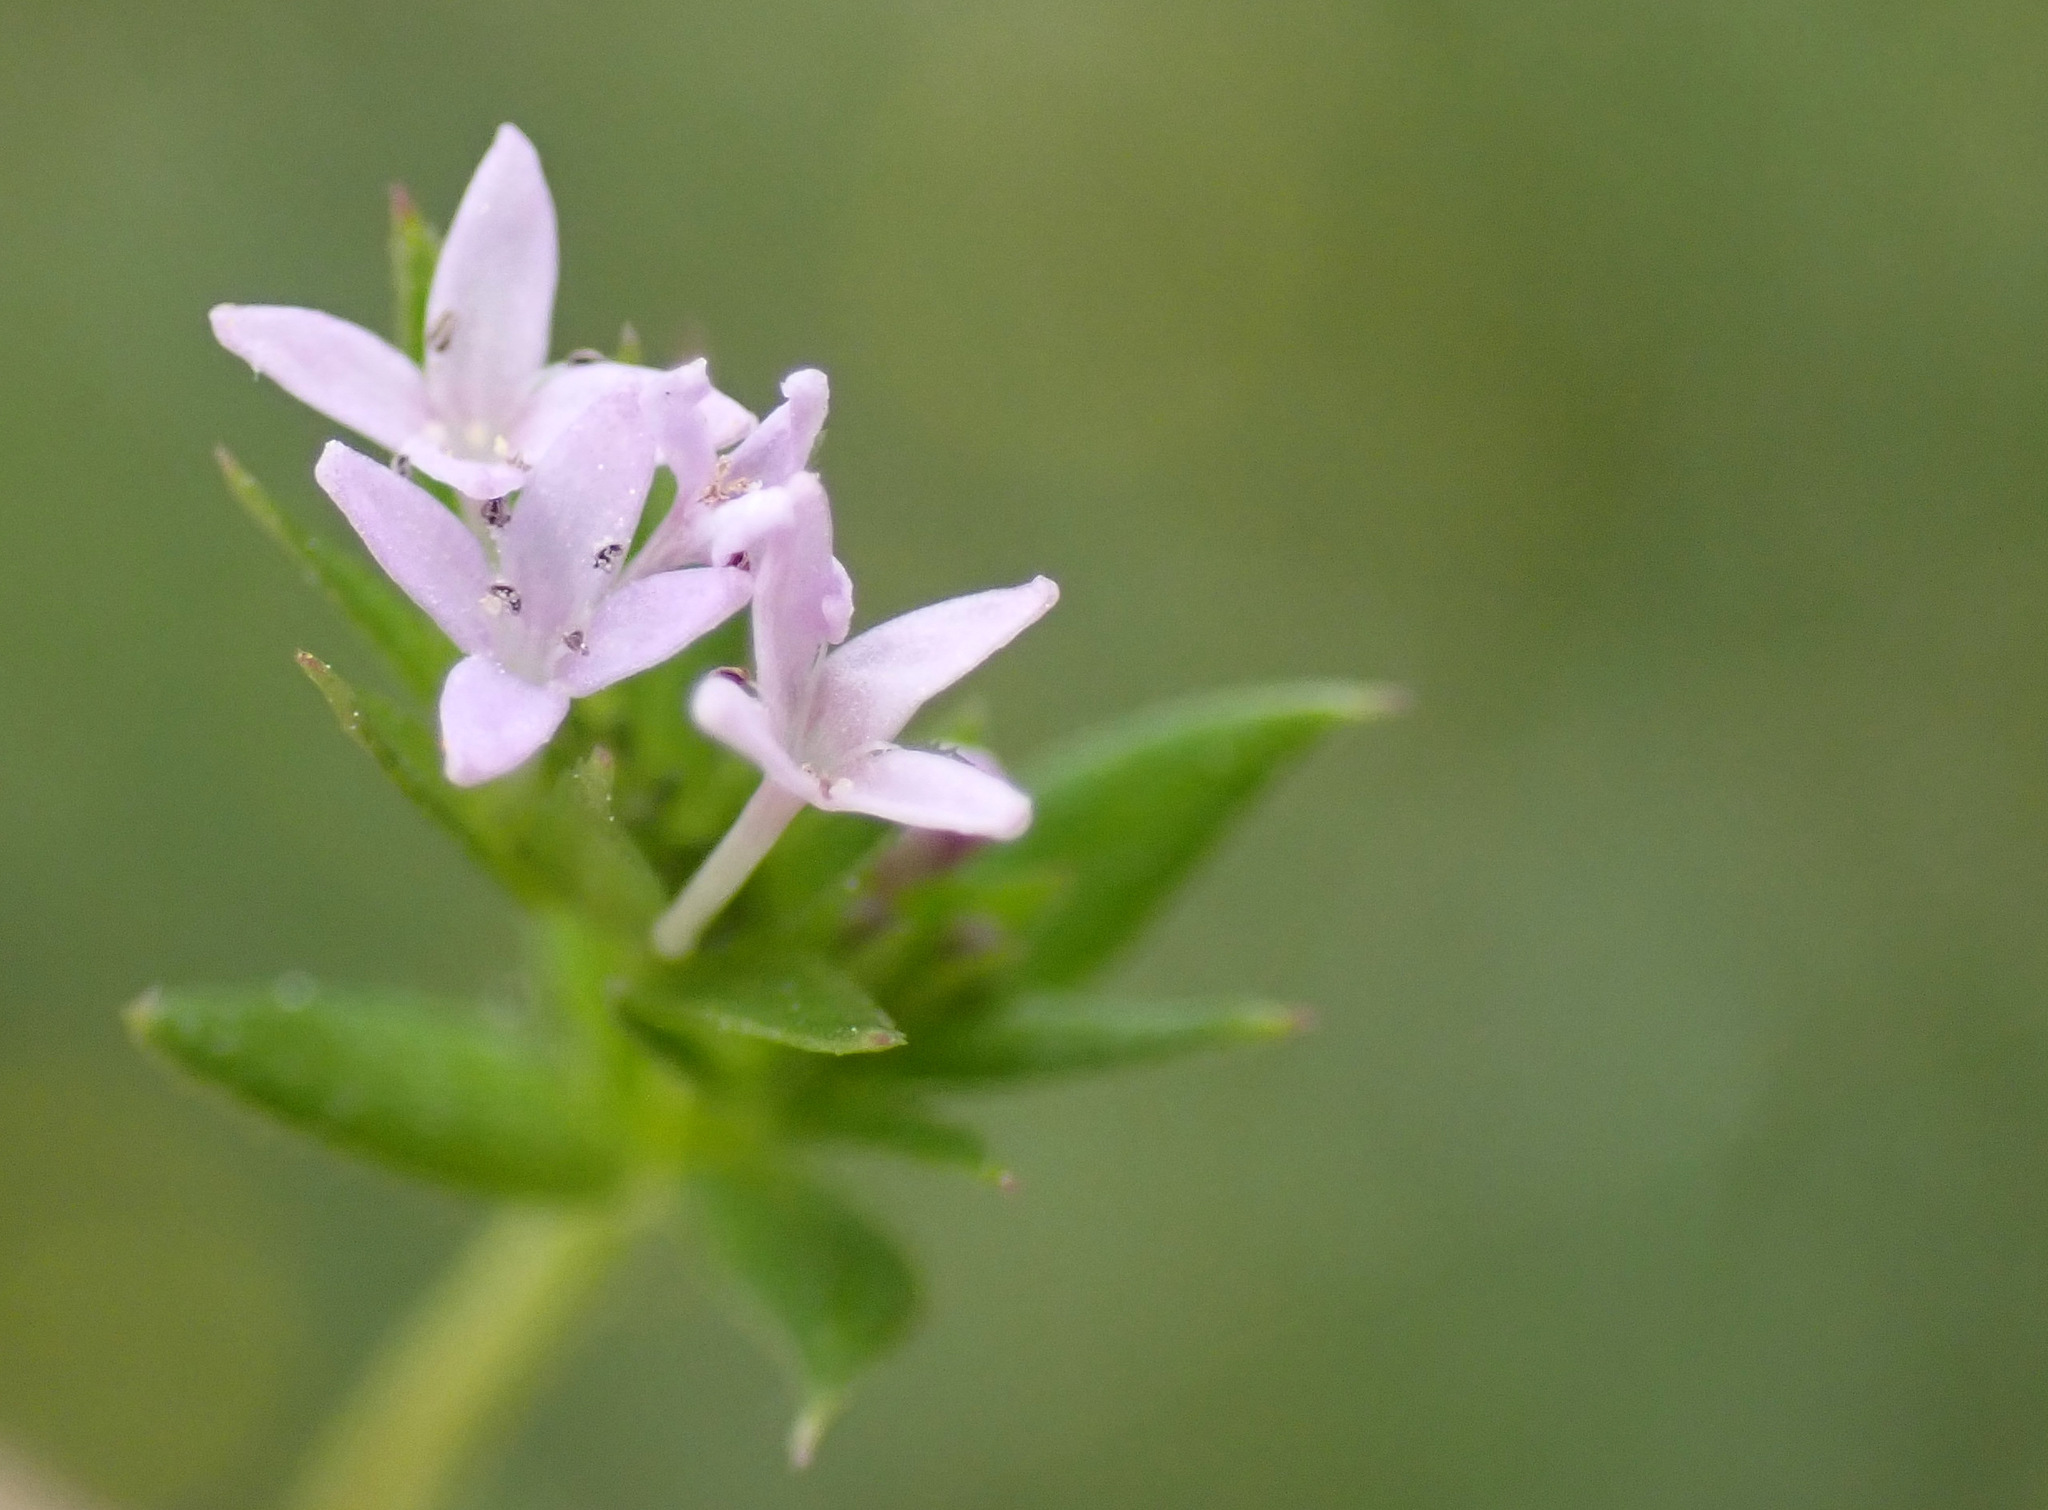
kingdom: Plantae
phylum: Tracheophyta
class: Magnoliopsida
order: Gentianales
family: Rubiaceae
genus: Sherardia
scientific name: Sherardia arvensis
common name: Field madder
